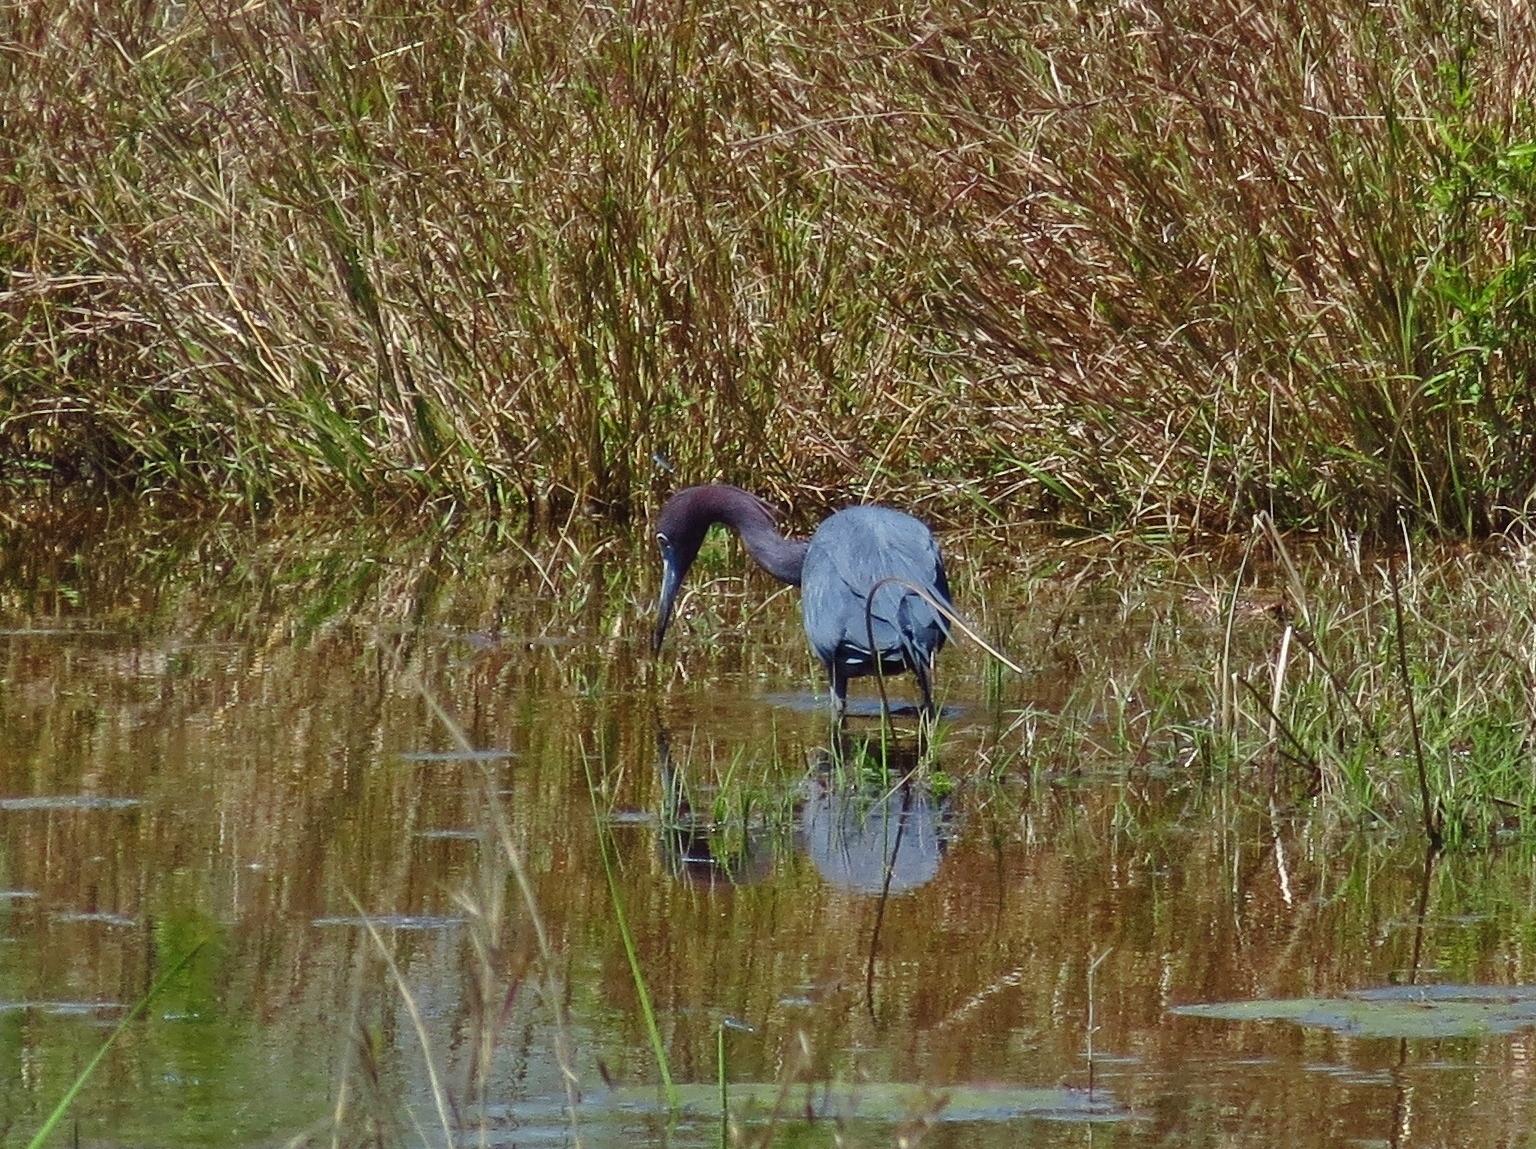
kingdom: Animalia
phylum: Chordata
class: Aves
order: Pelecaniformes
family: Ardeidae
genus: Egretta
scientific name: Egretta caerulea
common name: Little blue heron
